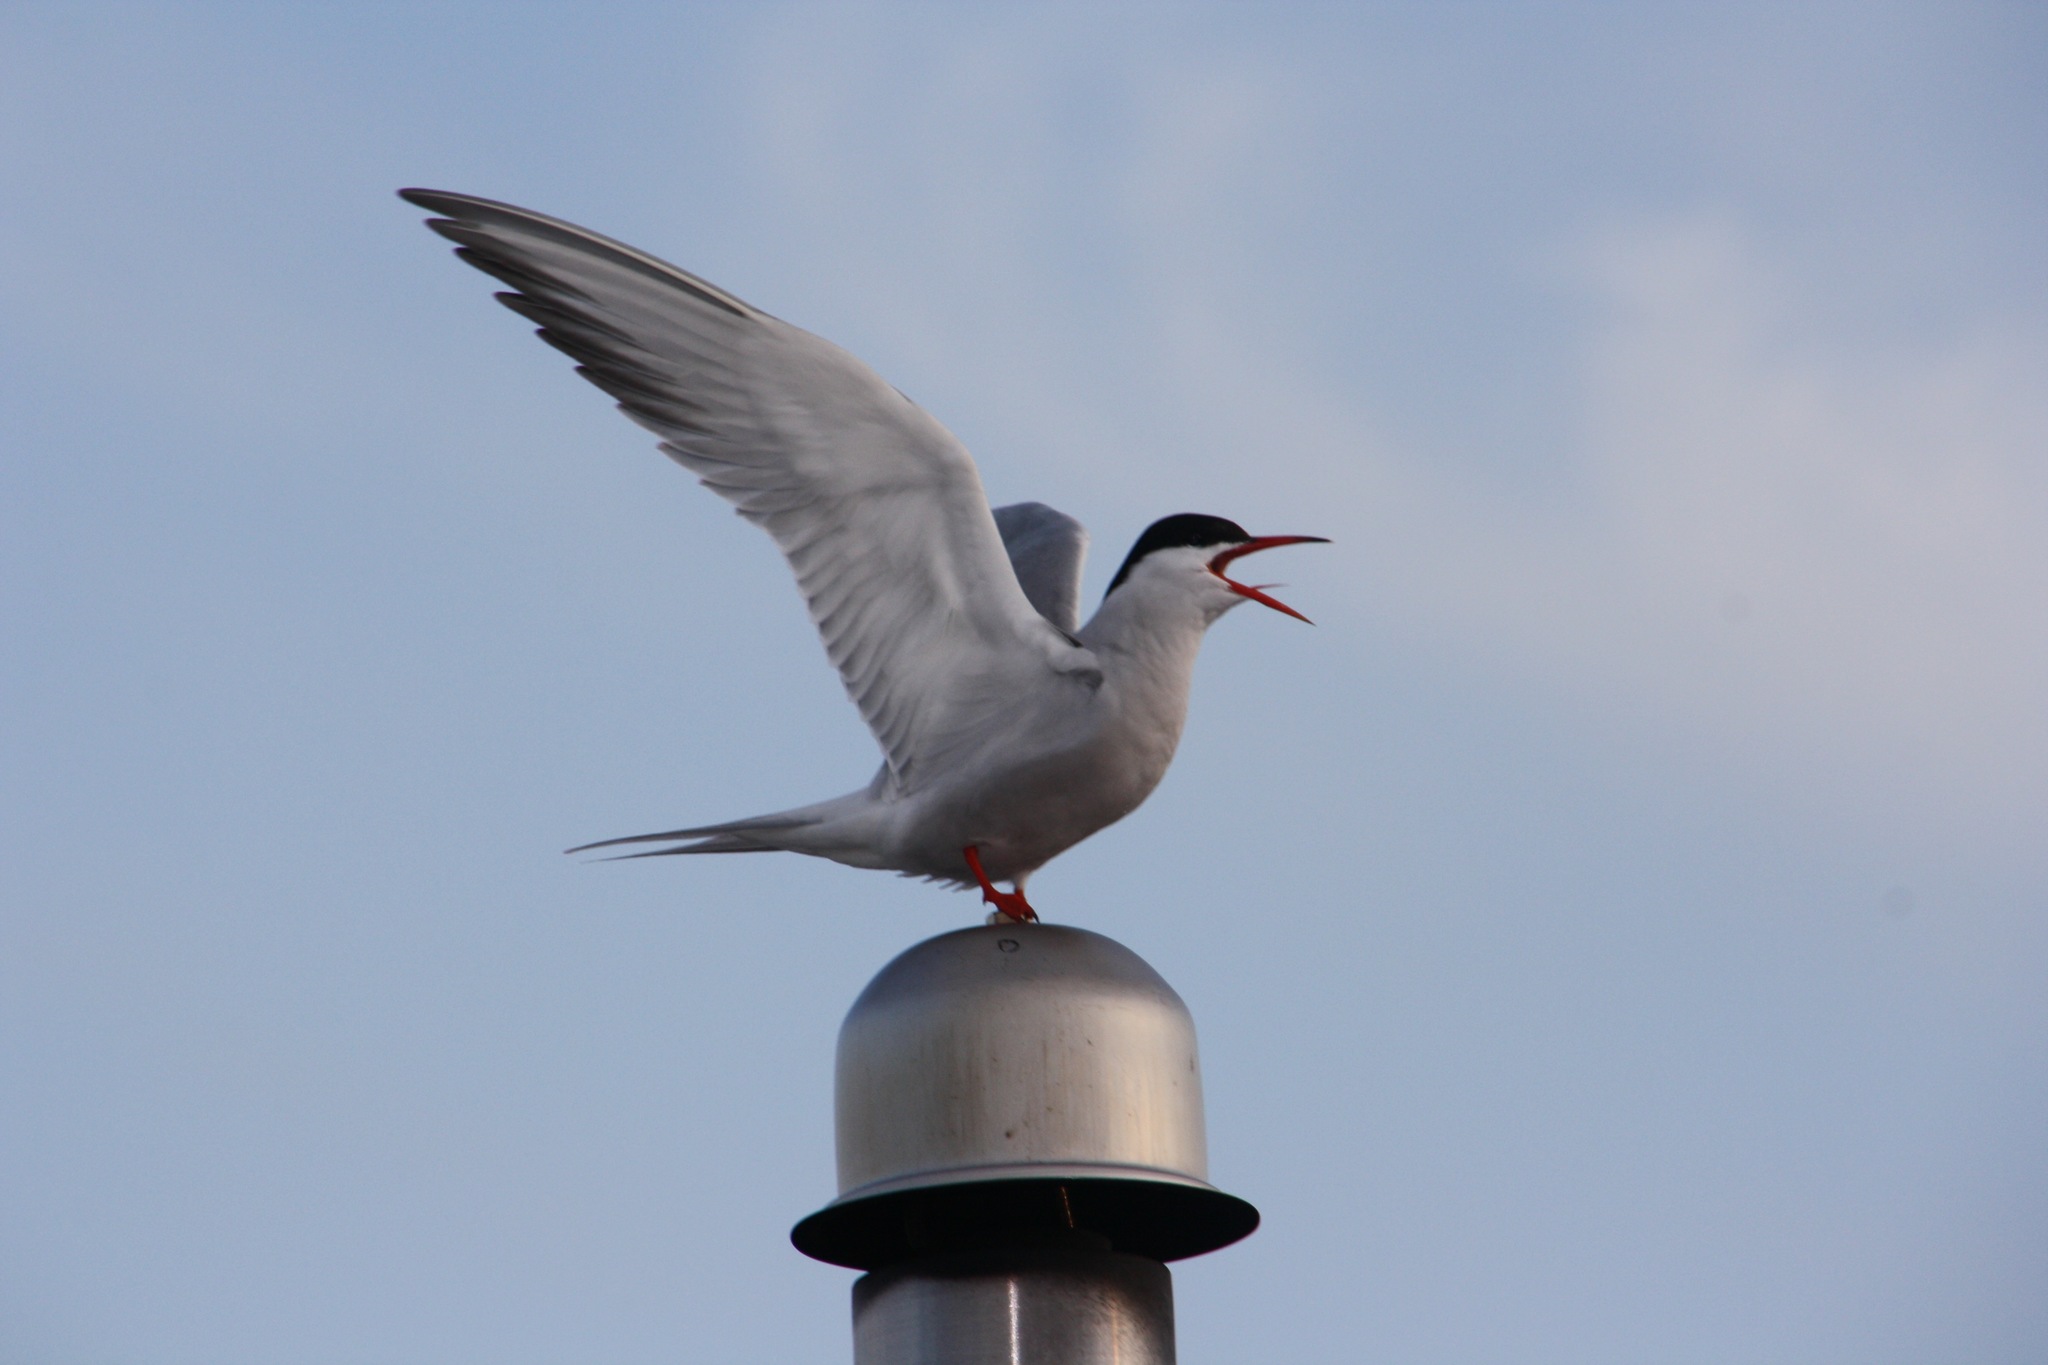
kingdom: Animalia
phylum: Chordata
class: Aves
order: Charadriiformes
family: Laridae
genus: Sterna
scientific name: Sterna hirundo
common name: Common tern
